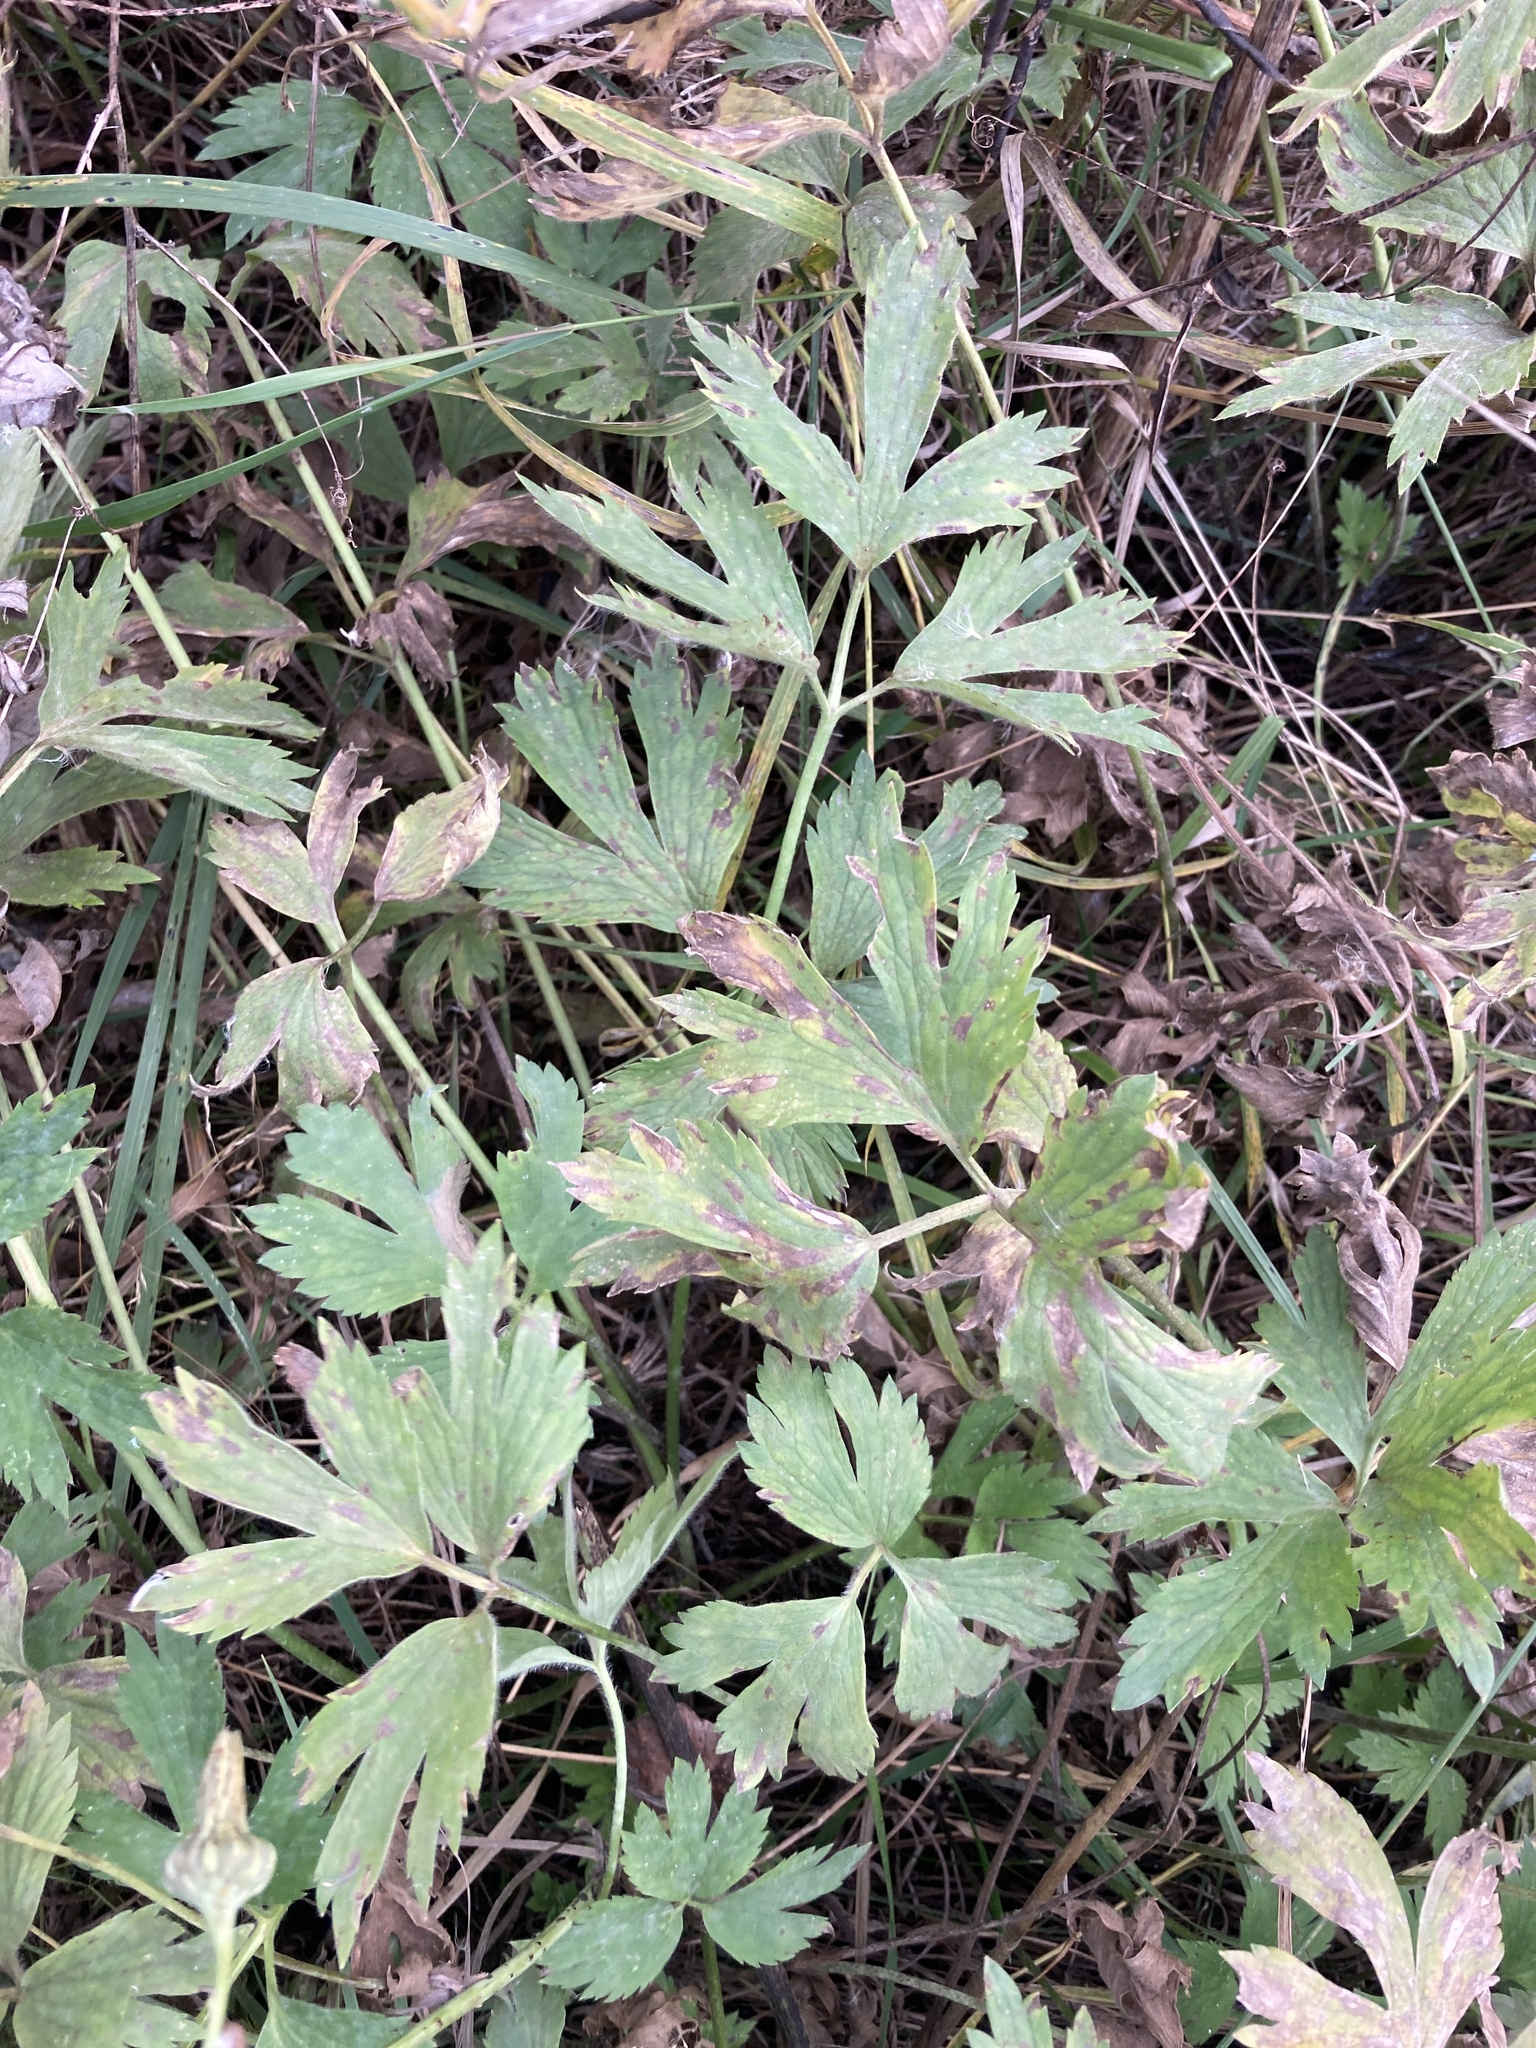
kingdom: Plantae
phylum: Tracheophyta
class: Magnoliopsida
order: Ranunculales
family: Ranunculaceae
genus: Ranunculus
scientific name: Ranunculus repens
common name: Creeping buttercup
